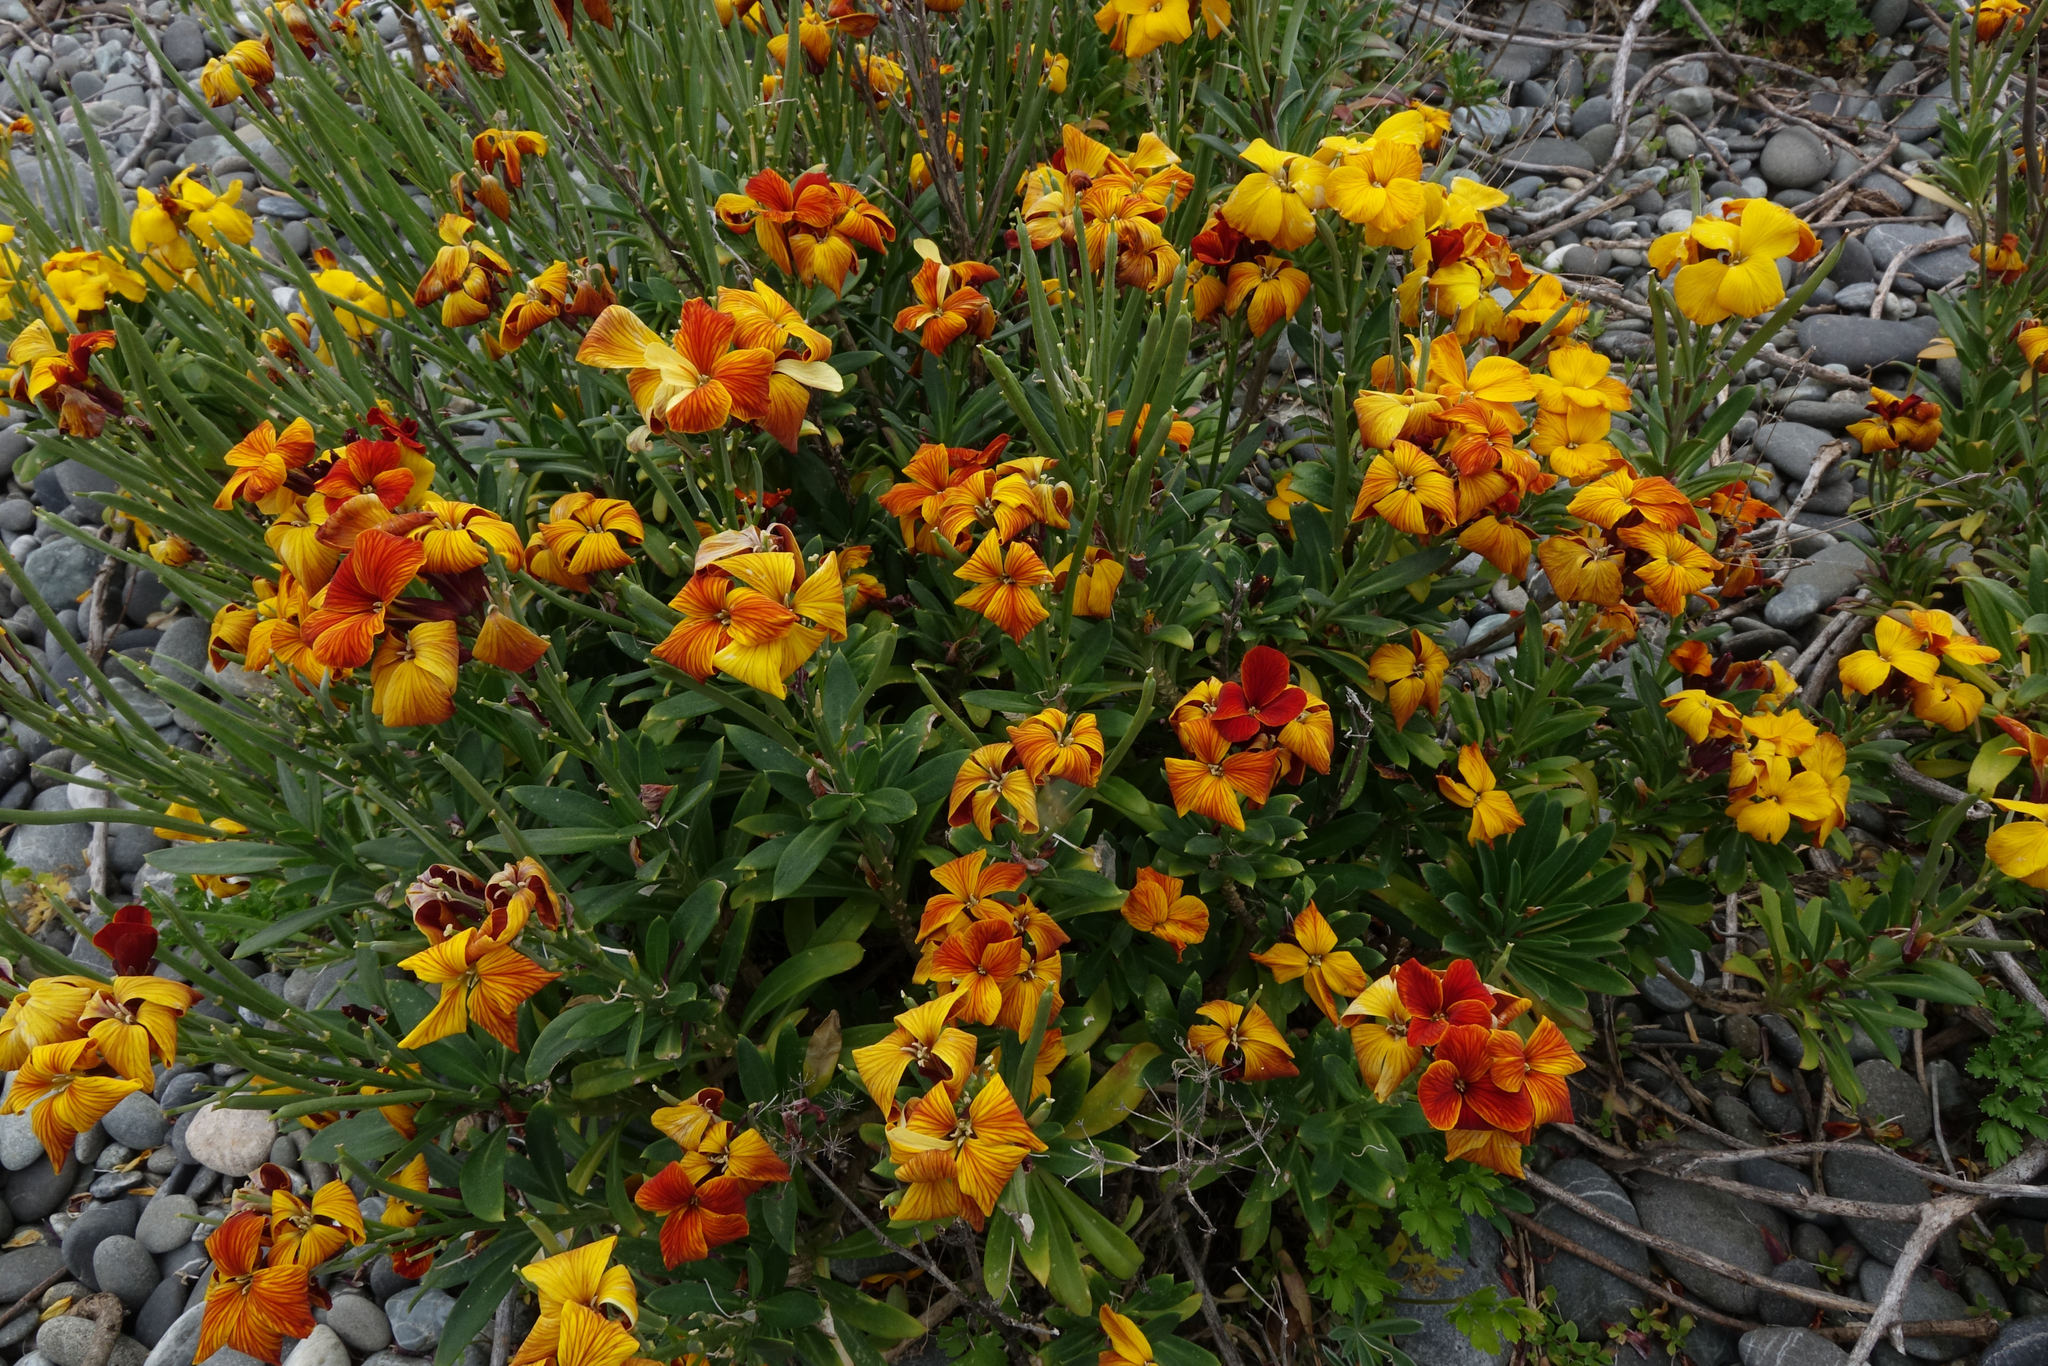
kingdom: Plantae
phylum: Tracheophyta
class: Magnoliopsida
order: Brassicales
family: Brassicaceae
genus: Erysimum
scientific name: Erysimum cheiri
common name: Wallflower
